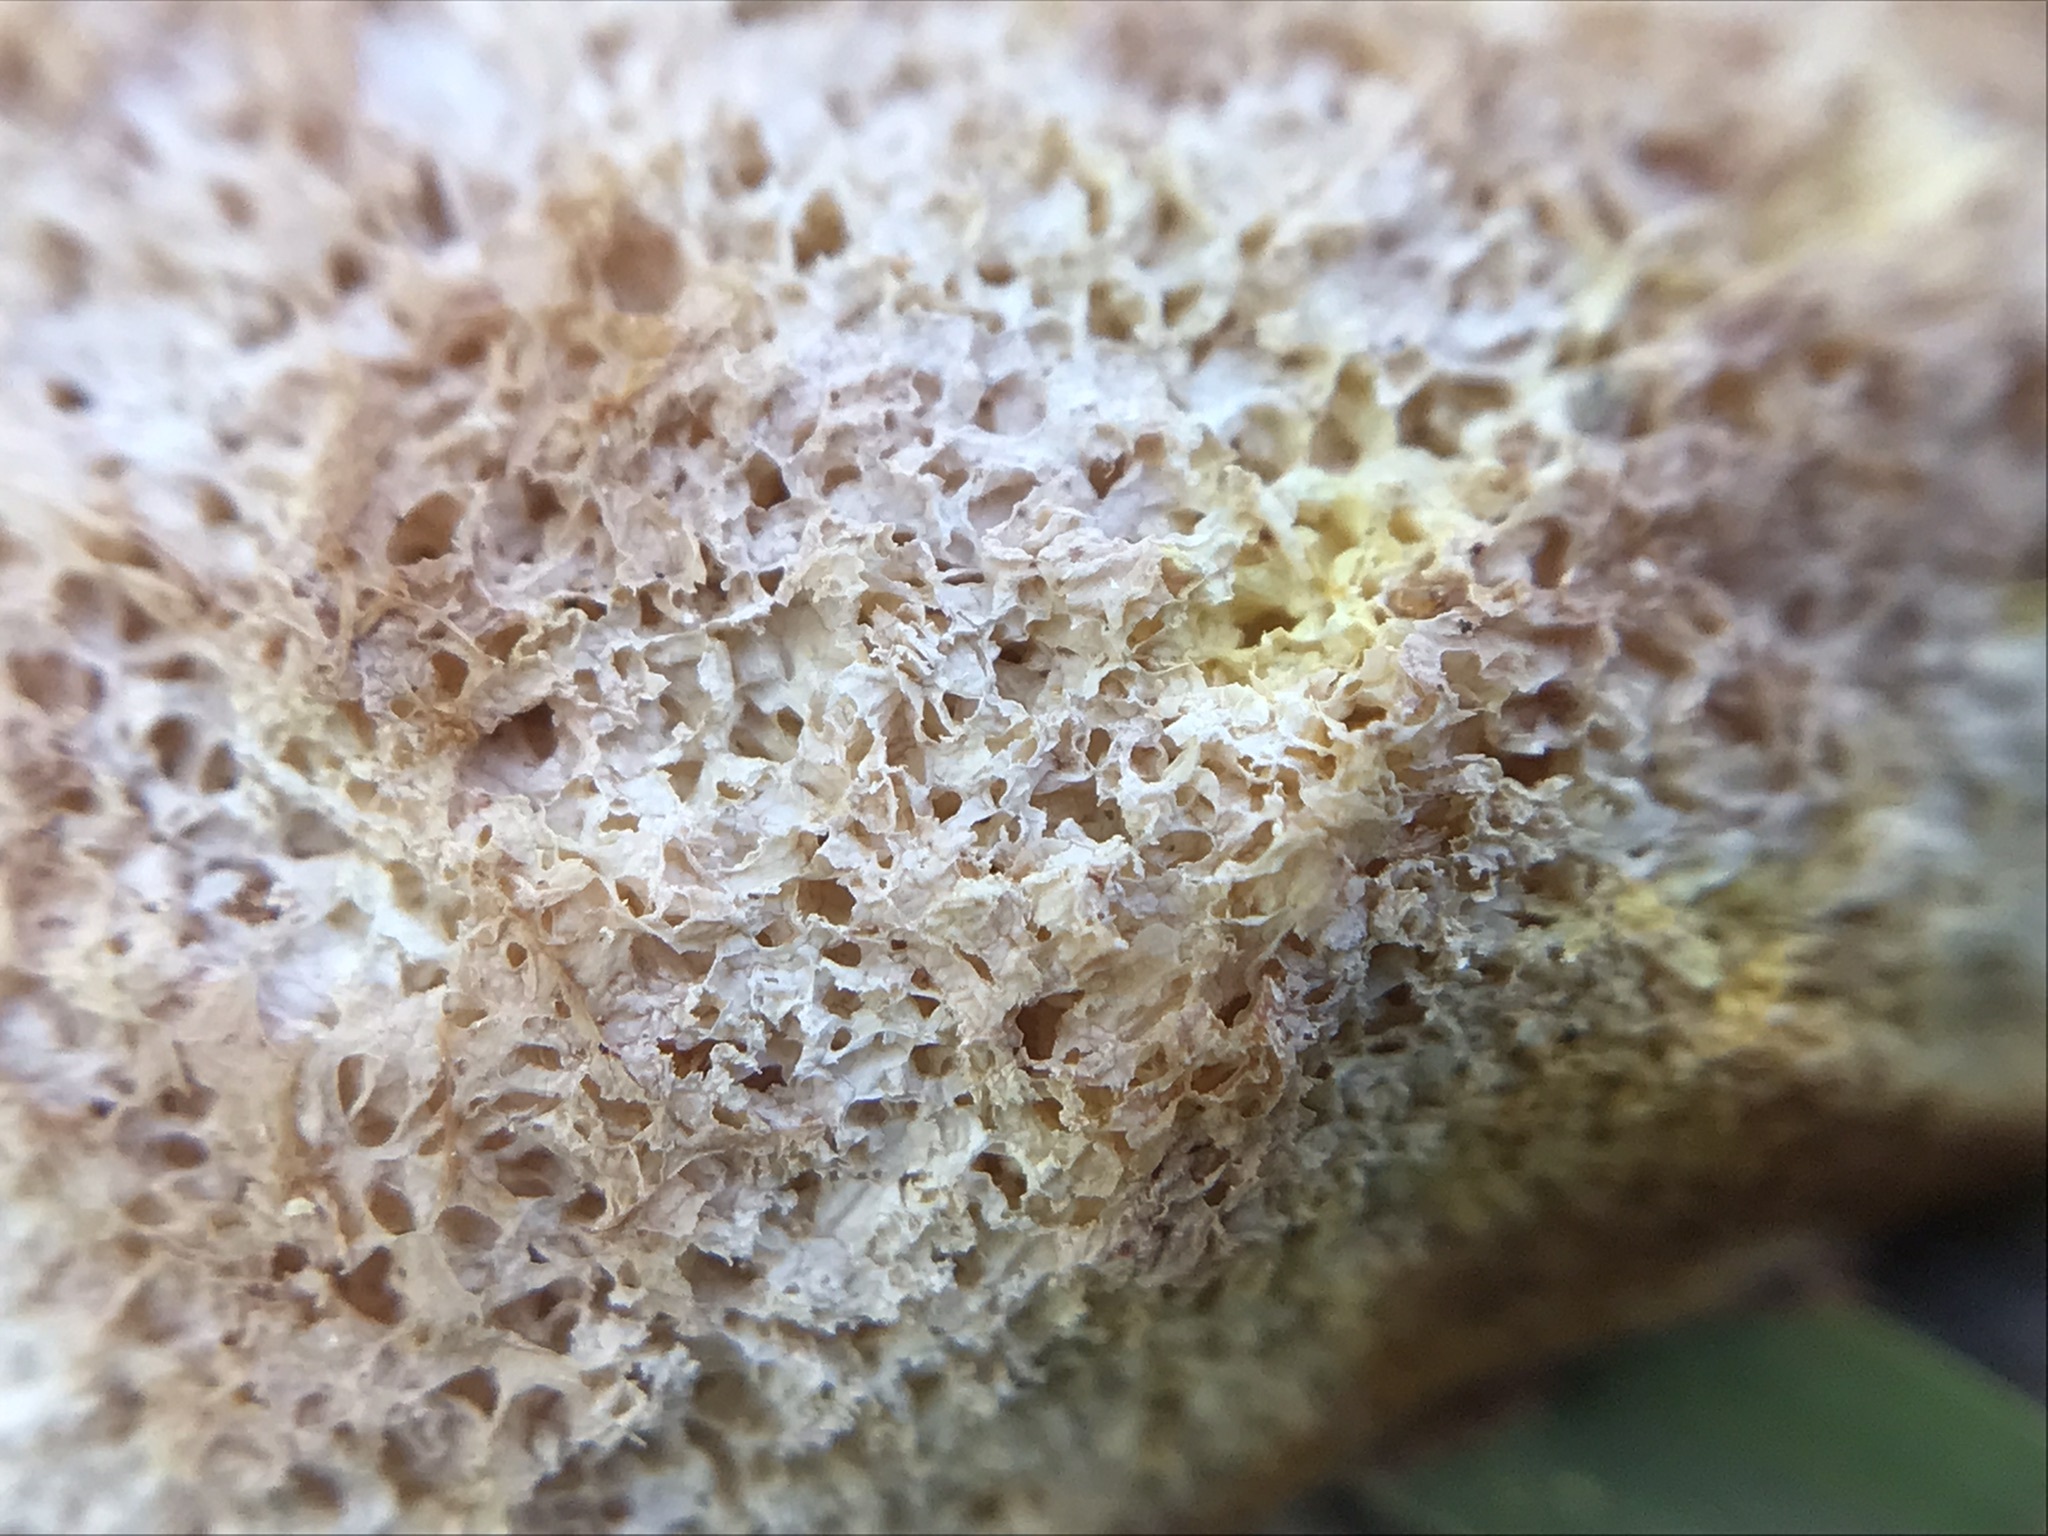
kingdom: Protozoa
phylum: Mycetozoa
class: Myxomycetes
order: Physarales
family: Physaraceae
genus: Fuligo
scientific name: Fuligo septica
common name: Dog vomit slime mold
